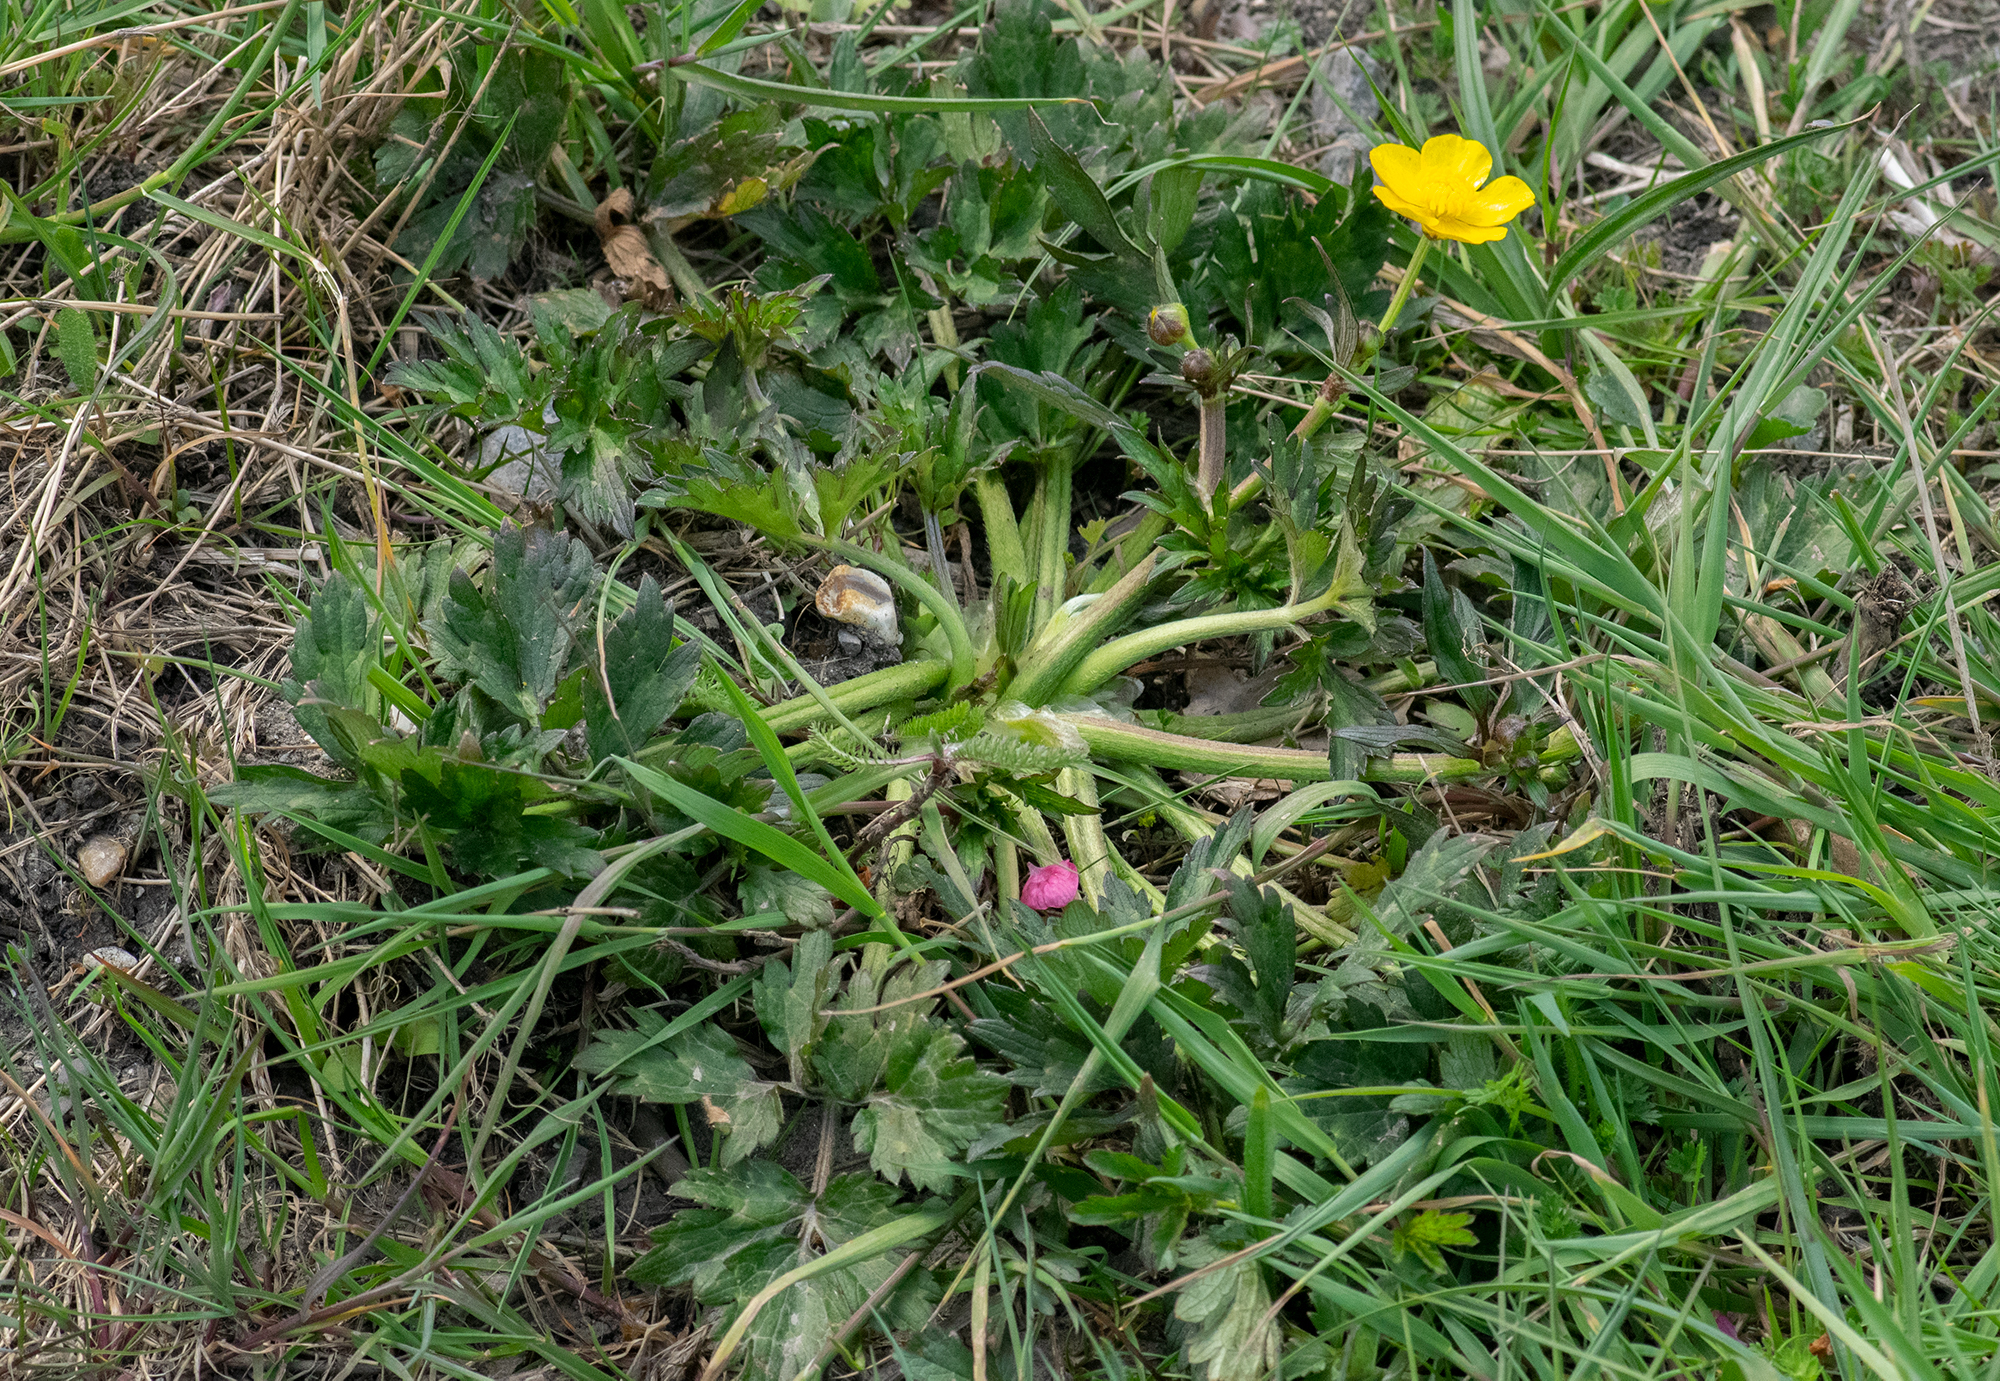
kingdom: Plantae
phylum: Tracheophyta
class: Magnoliopsida
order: Ranunculales
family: Ranunculaceae
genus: Ranunculus
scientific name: Ranunculus repens
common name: Creeping buttercup
